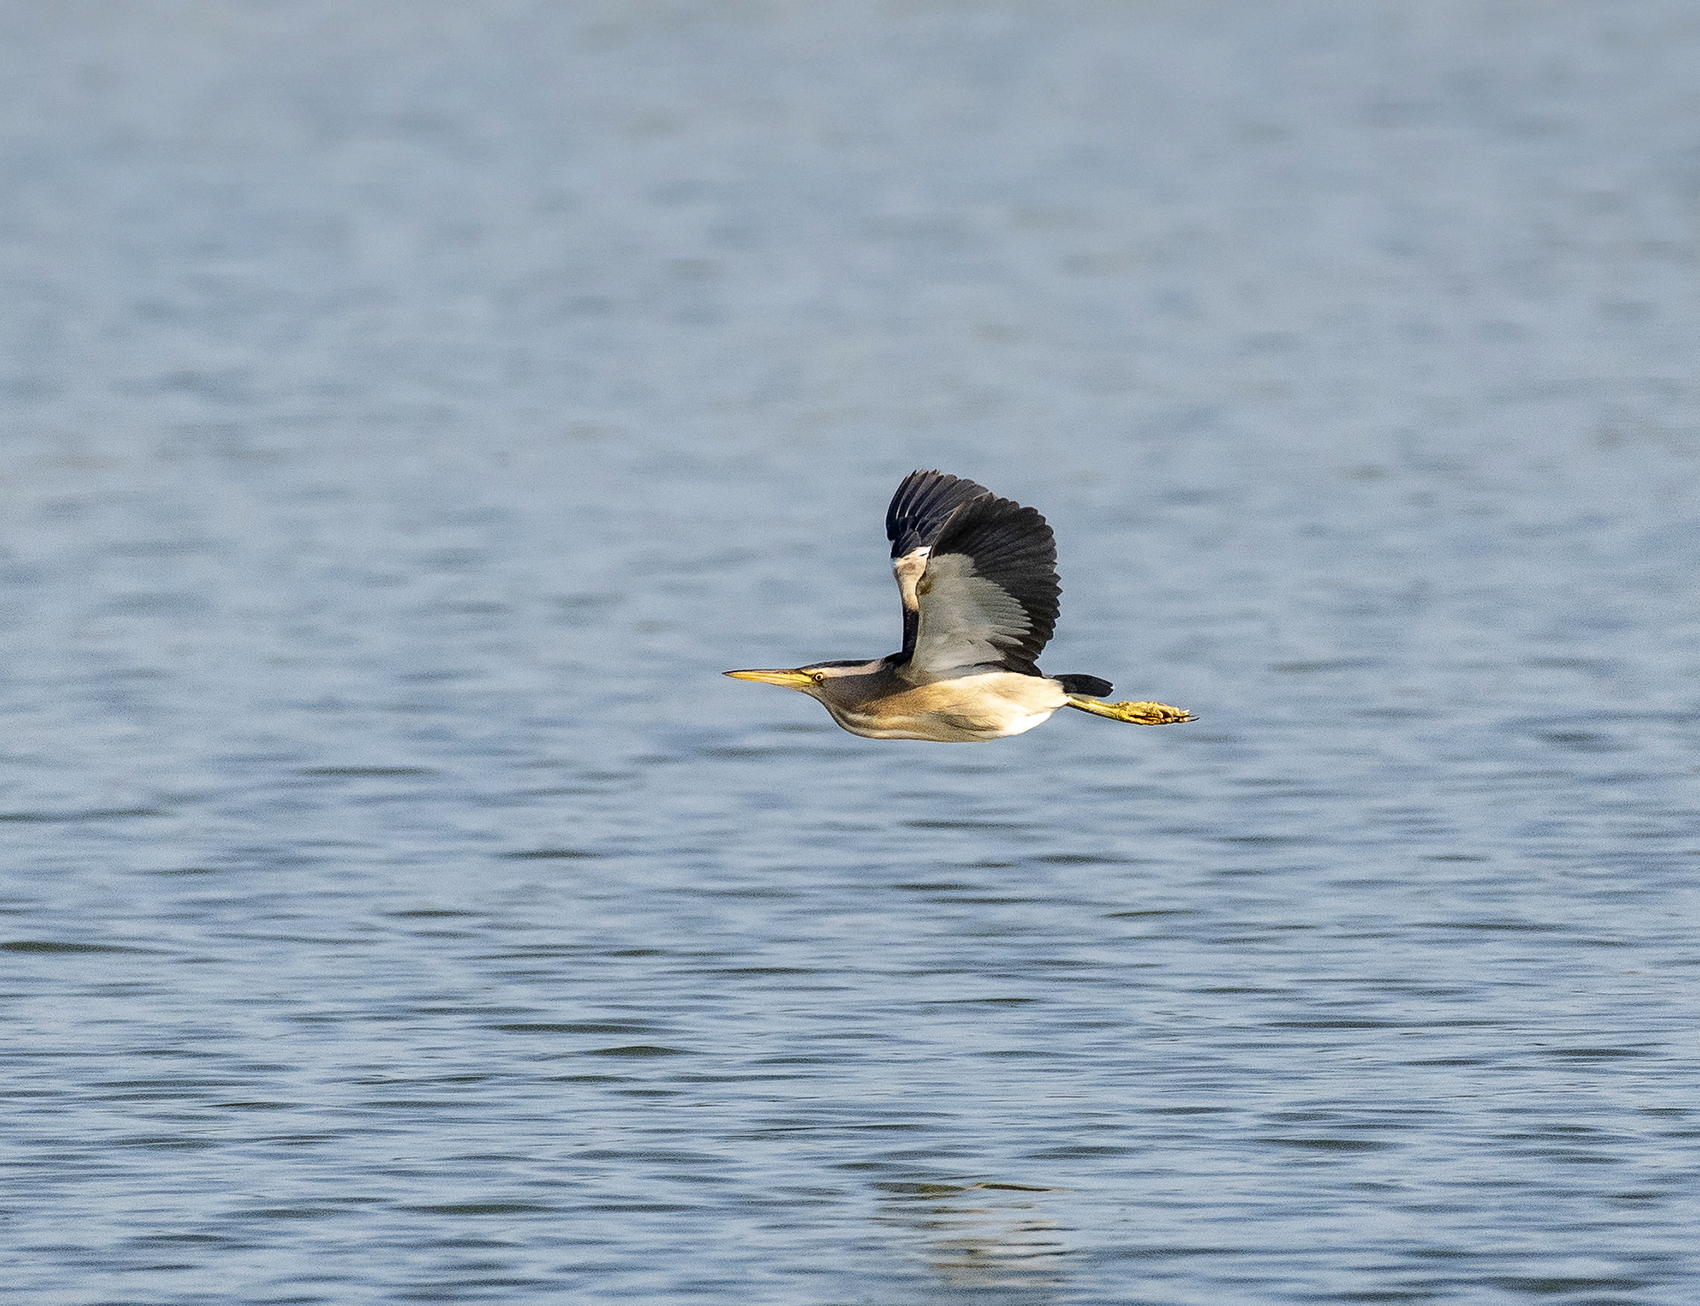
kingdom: Animalia
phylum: Chordata
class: Aves
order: Pelecaniformes
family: Ardeidae
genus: Ixobrychus
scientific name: Ixobrychus minutus
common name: Little bittern
